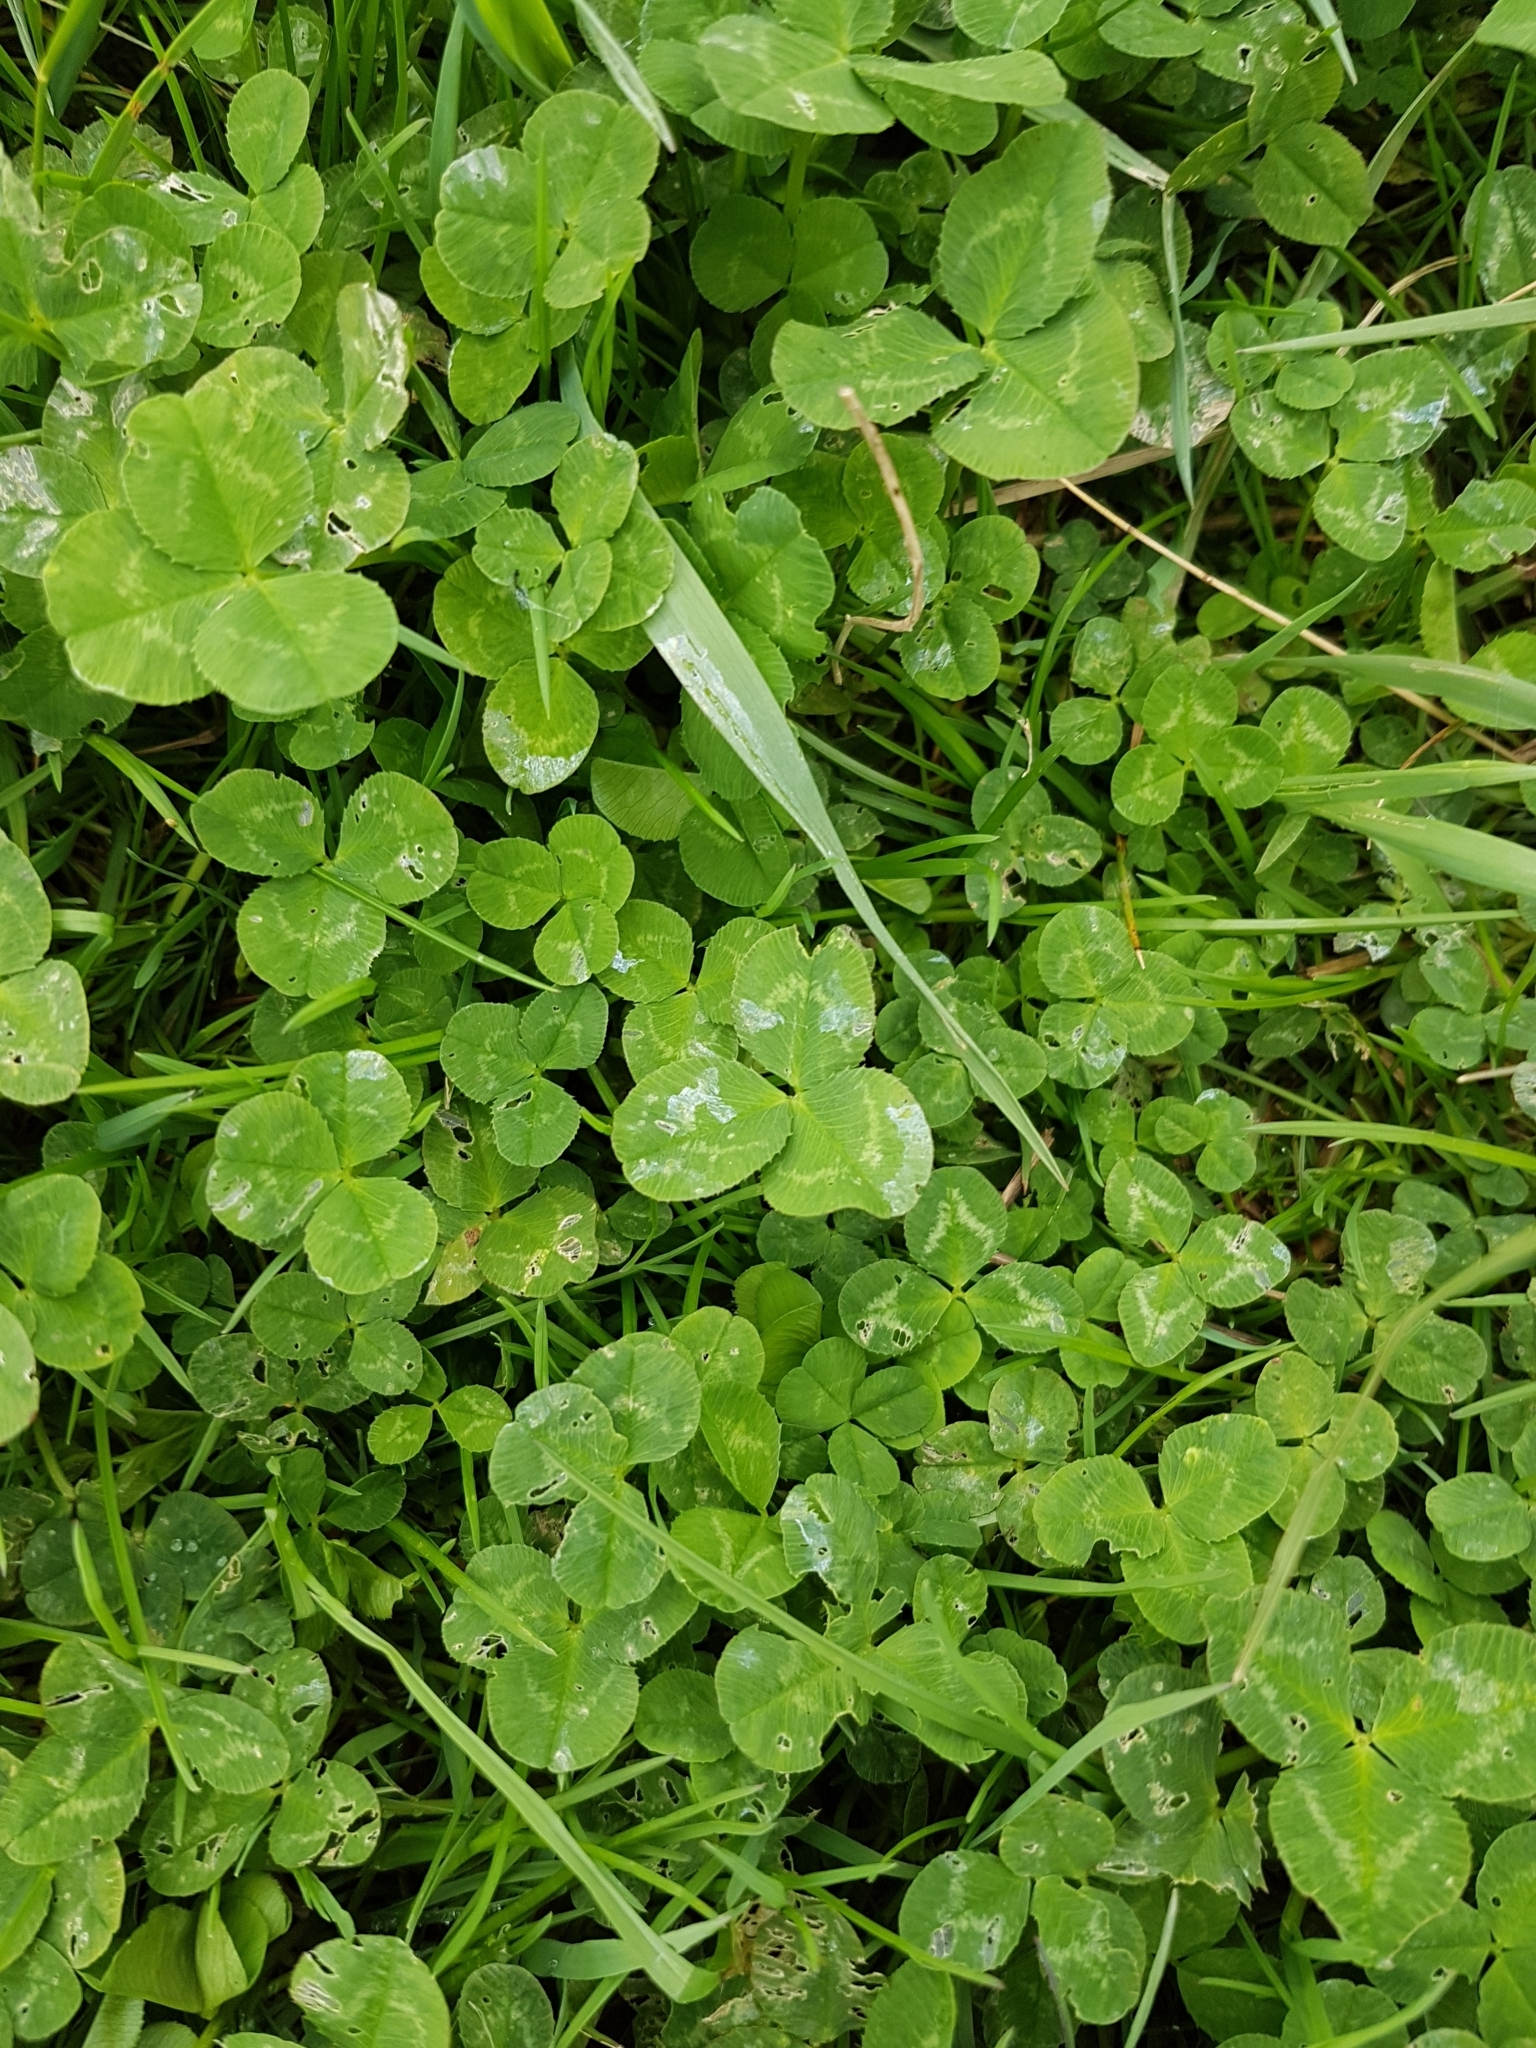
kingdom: Plantae
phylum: Tracheophyta
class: Magnoliopsida
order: Fabales
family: Fabaceae
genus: Trifolium
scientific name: Trifolium repens
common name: White clover
